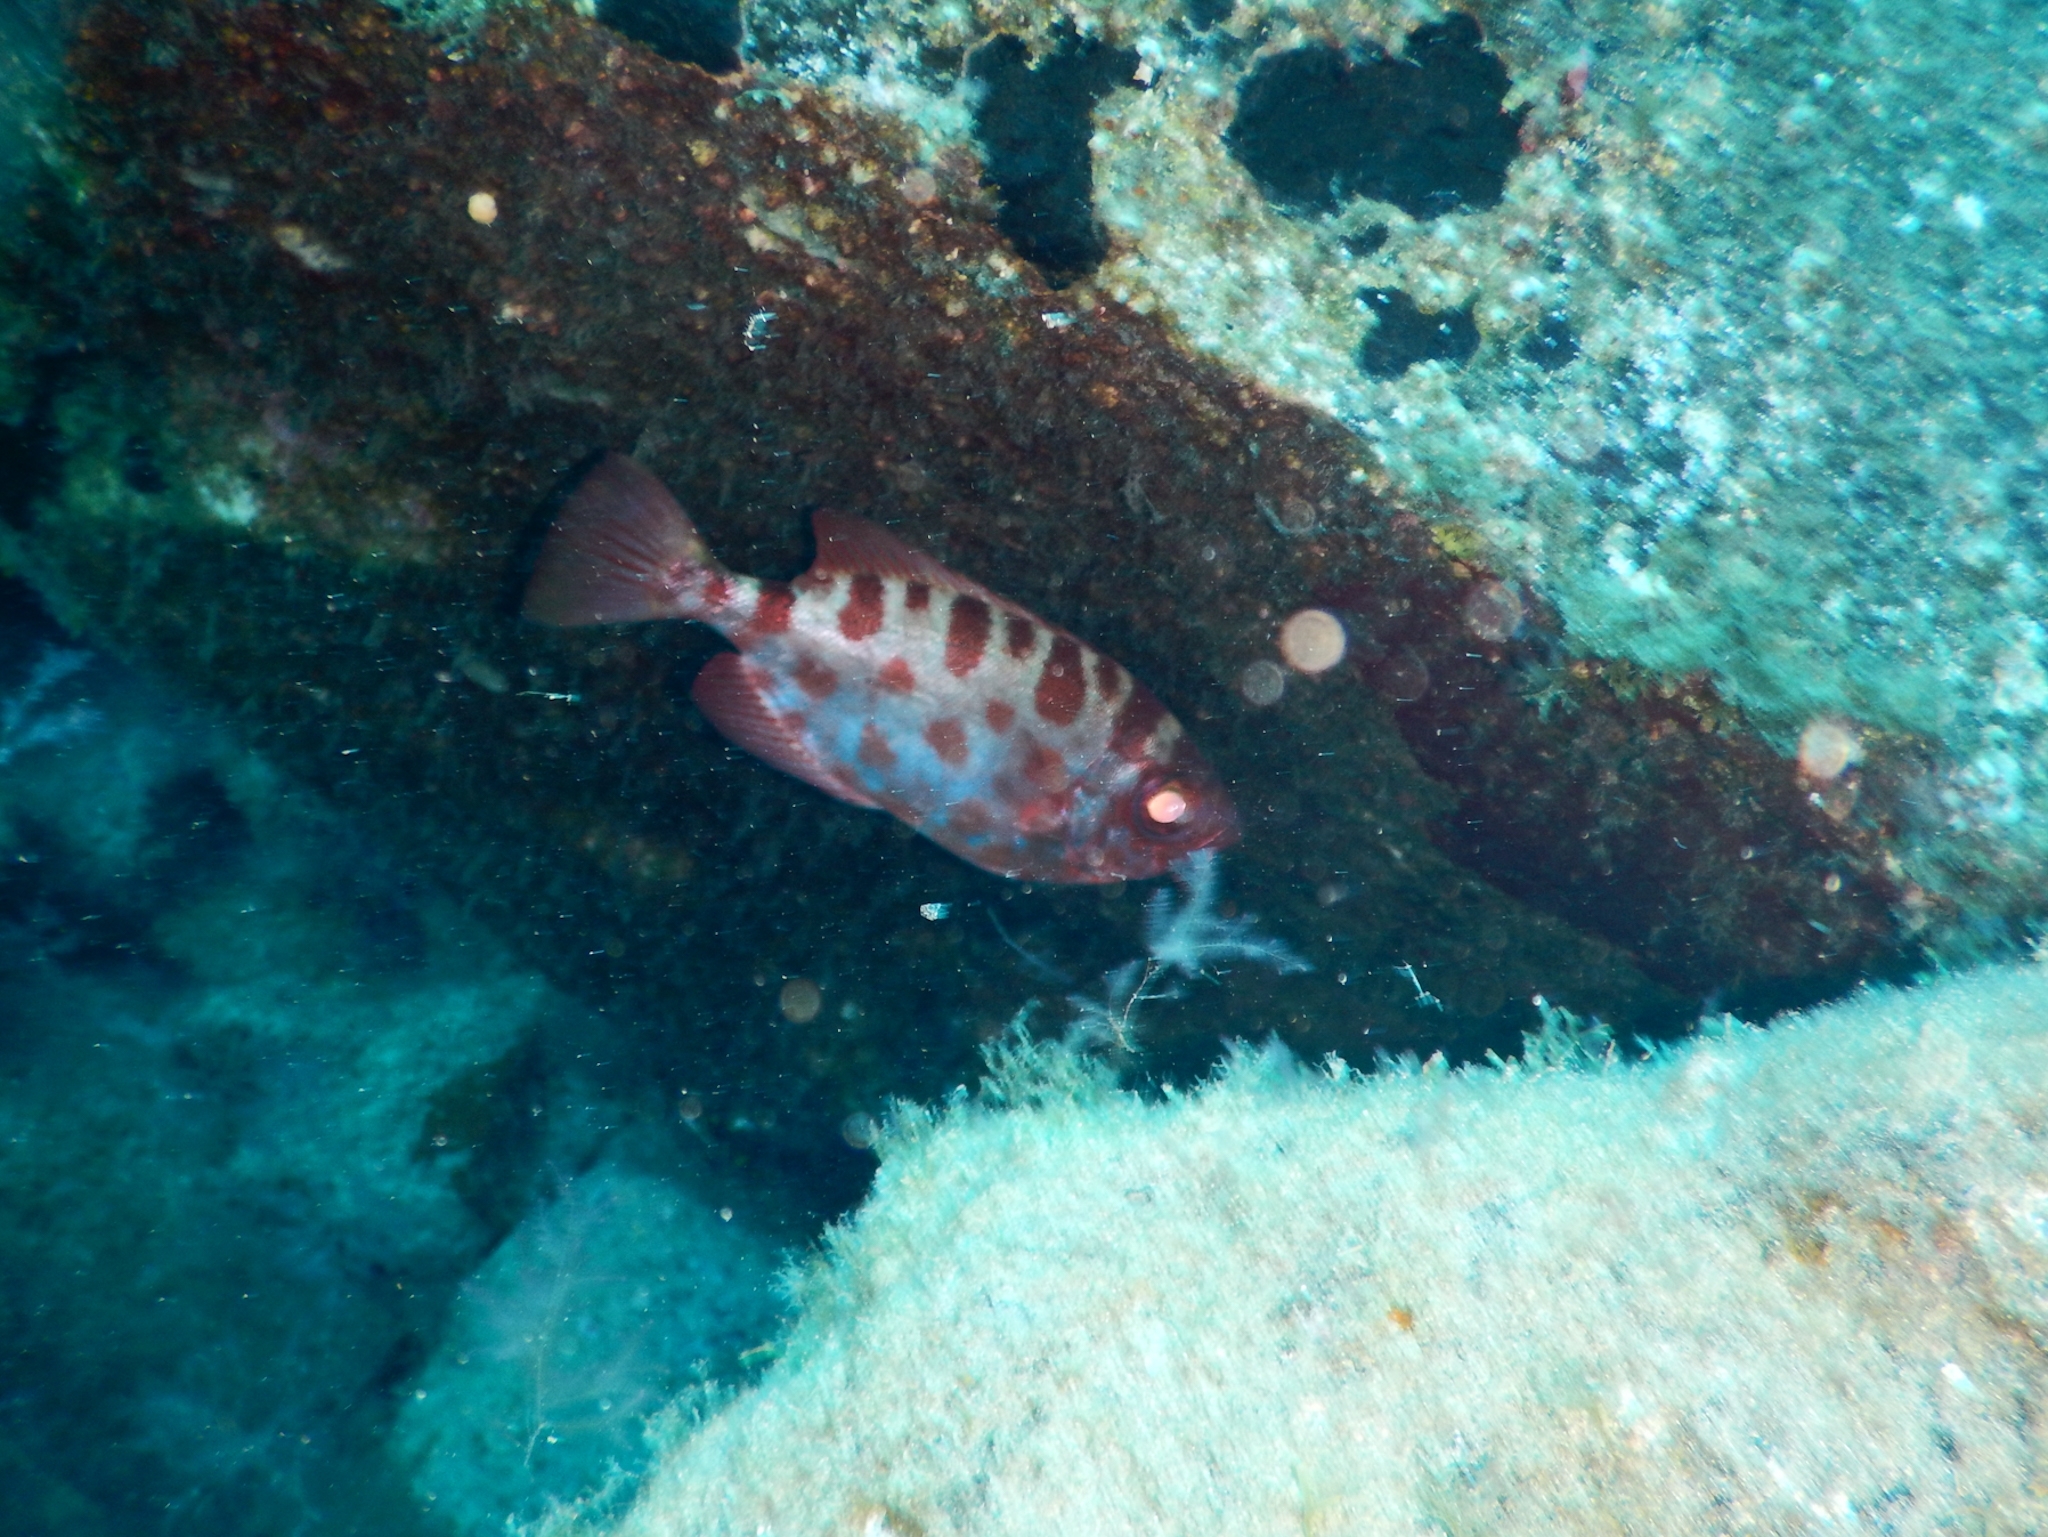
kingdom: Animalia
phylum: Chordata
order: Perciformes
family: Priacanthidae
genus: Heteropriacanthus
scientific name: Heteropriacanthus fulgens
